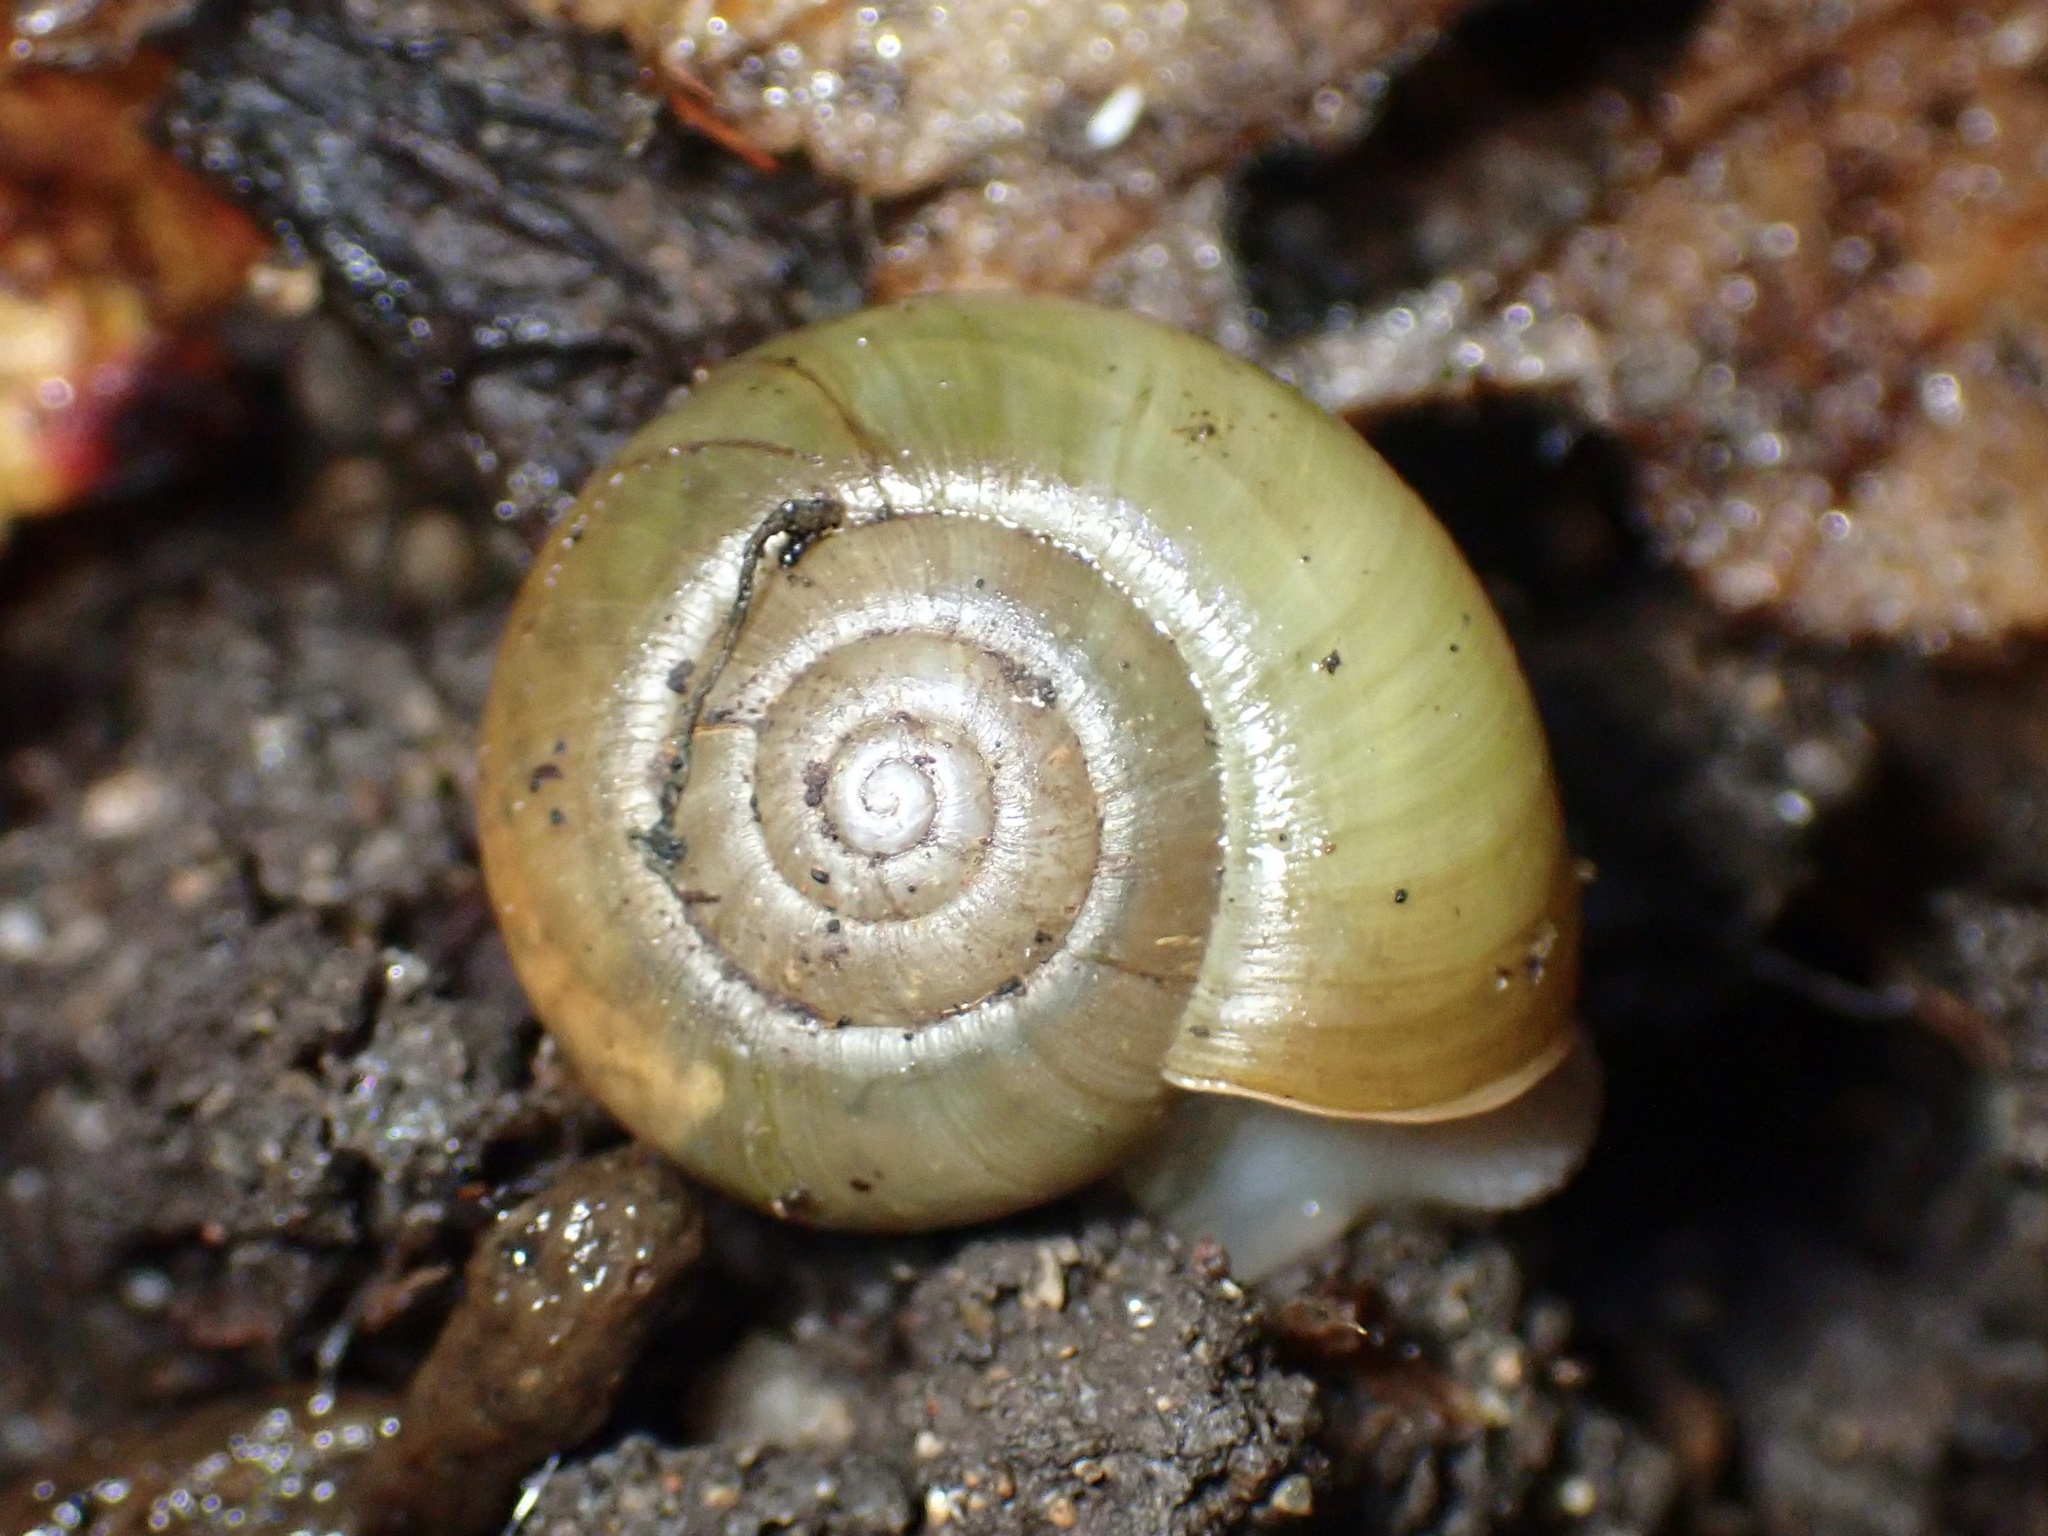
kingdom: Animalia
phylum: Mollusca
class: Gastropoda
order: Stylommatophora
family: Haplotrematidae
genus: Haplotrema
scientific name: Haplotrema minimum
